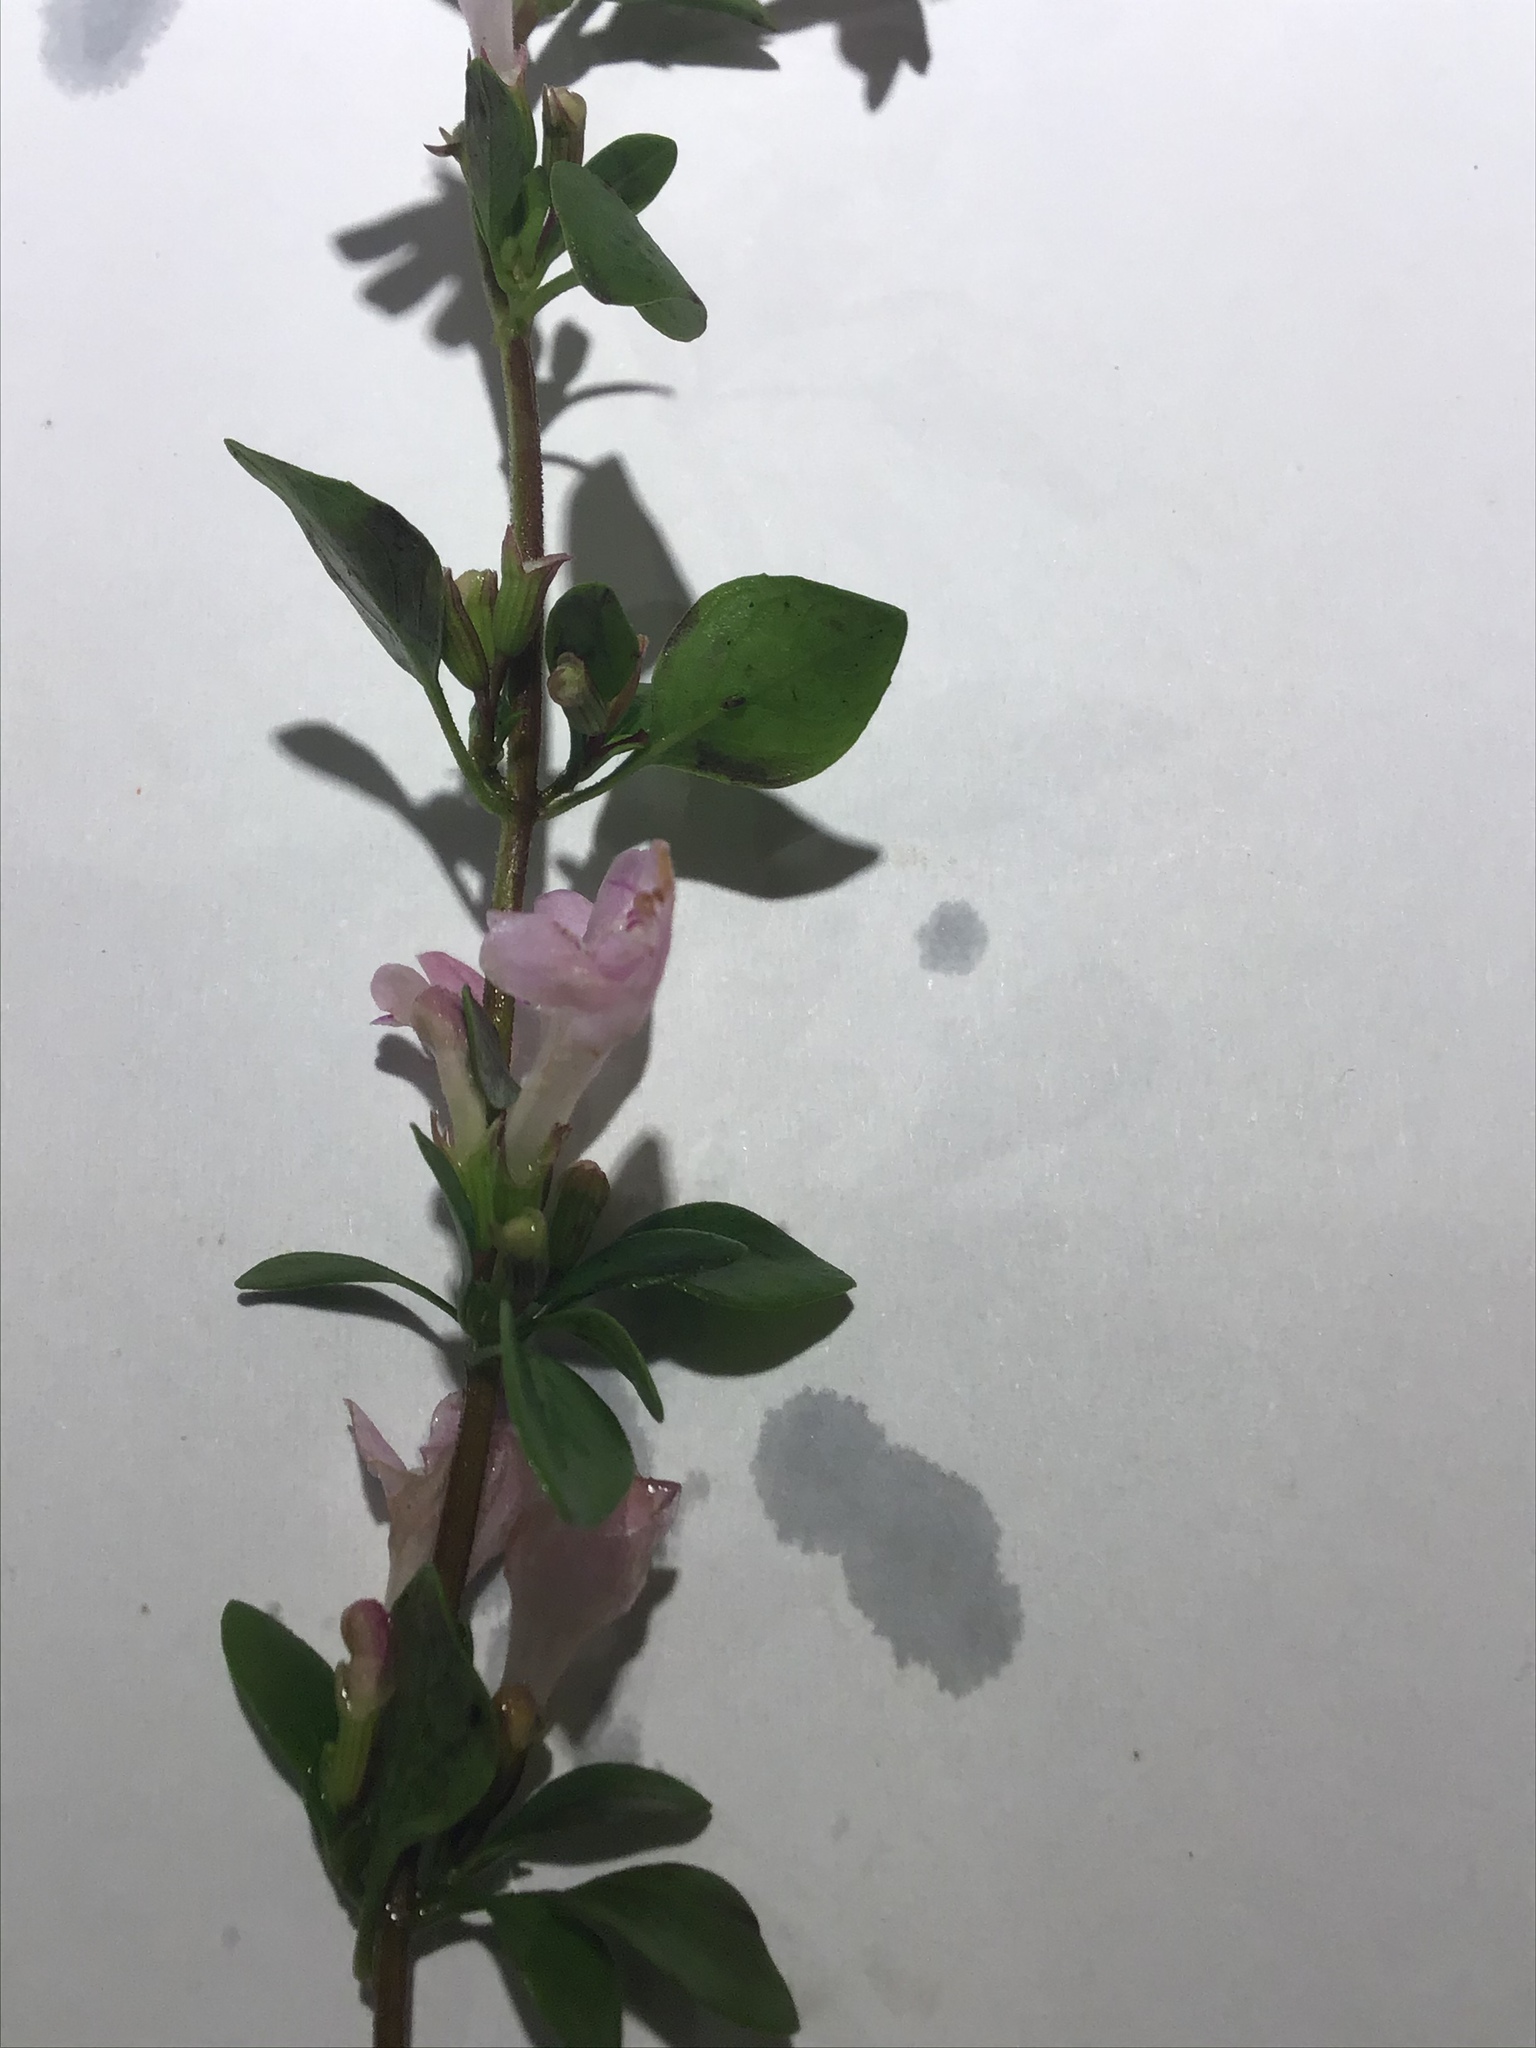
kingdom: Plantae
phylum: Tracheophyta
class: Magnoliopsida
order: Lamiales
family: Lamiaceae
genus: Clinopodium
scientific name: Clinopodium carolinianum
